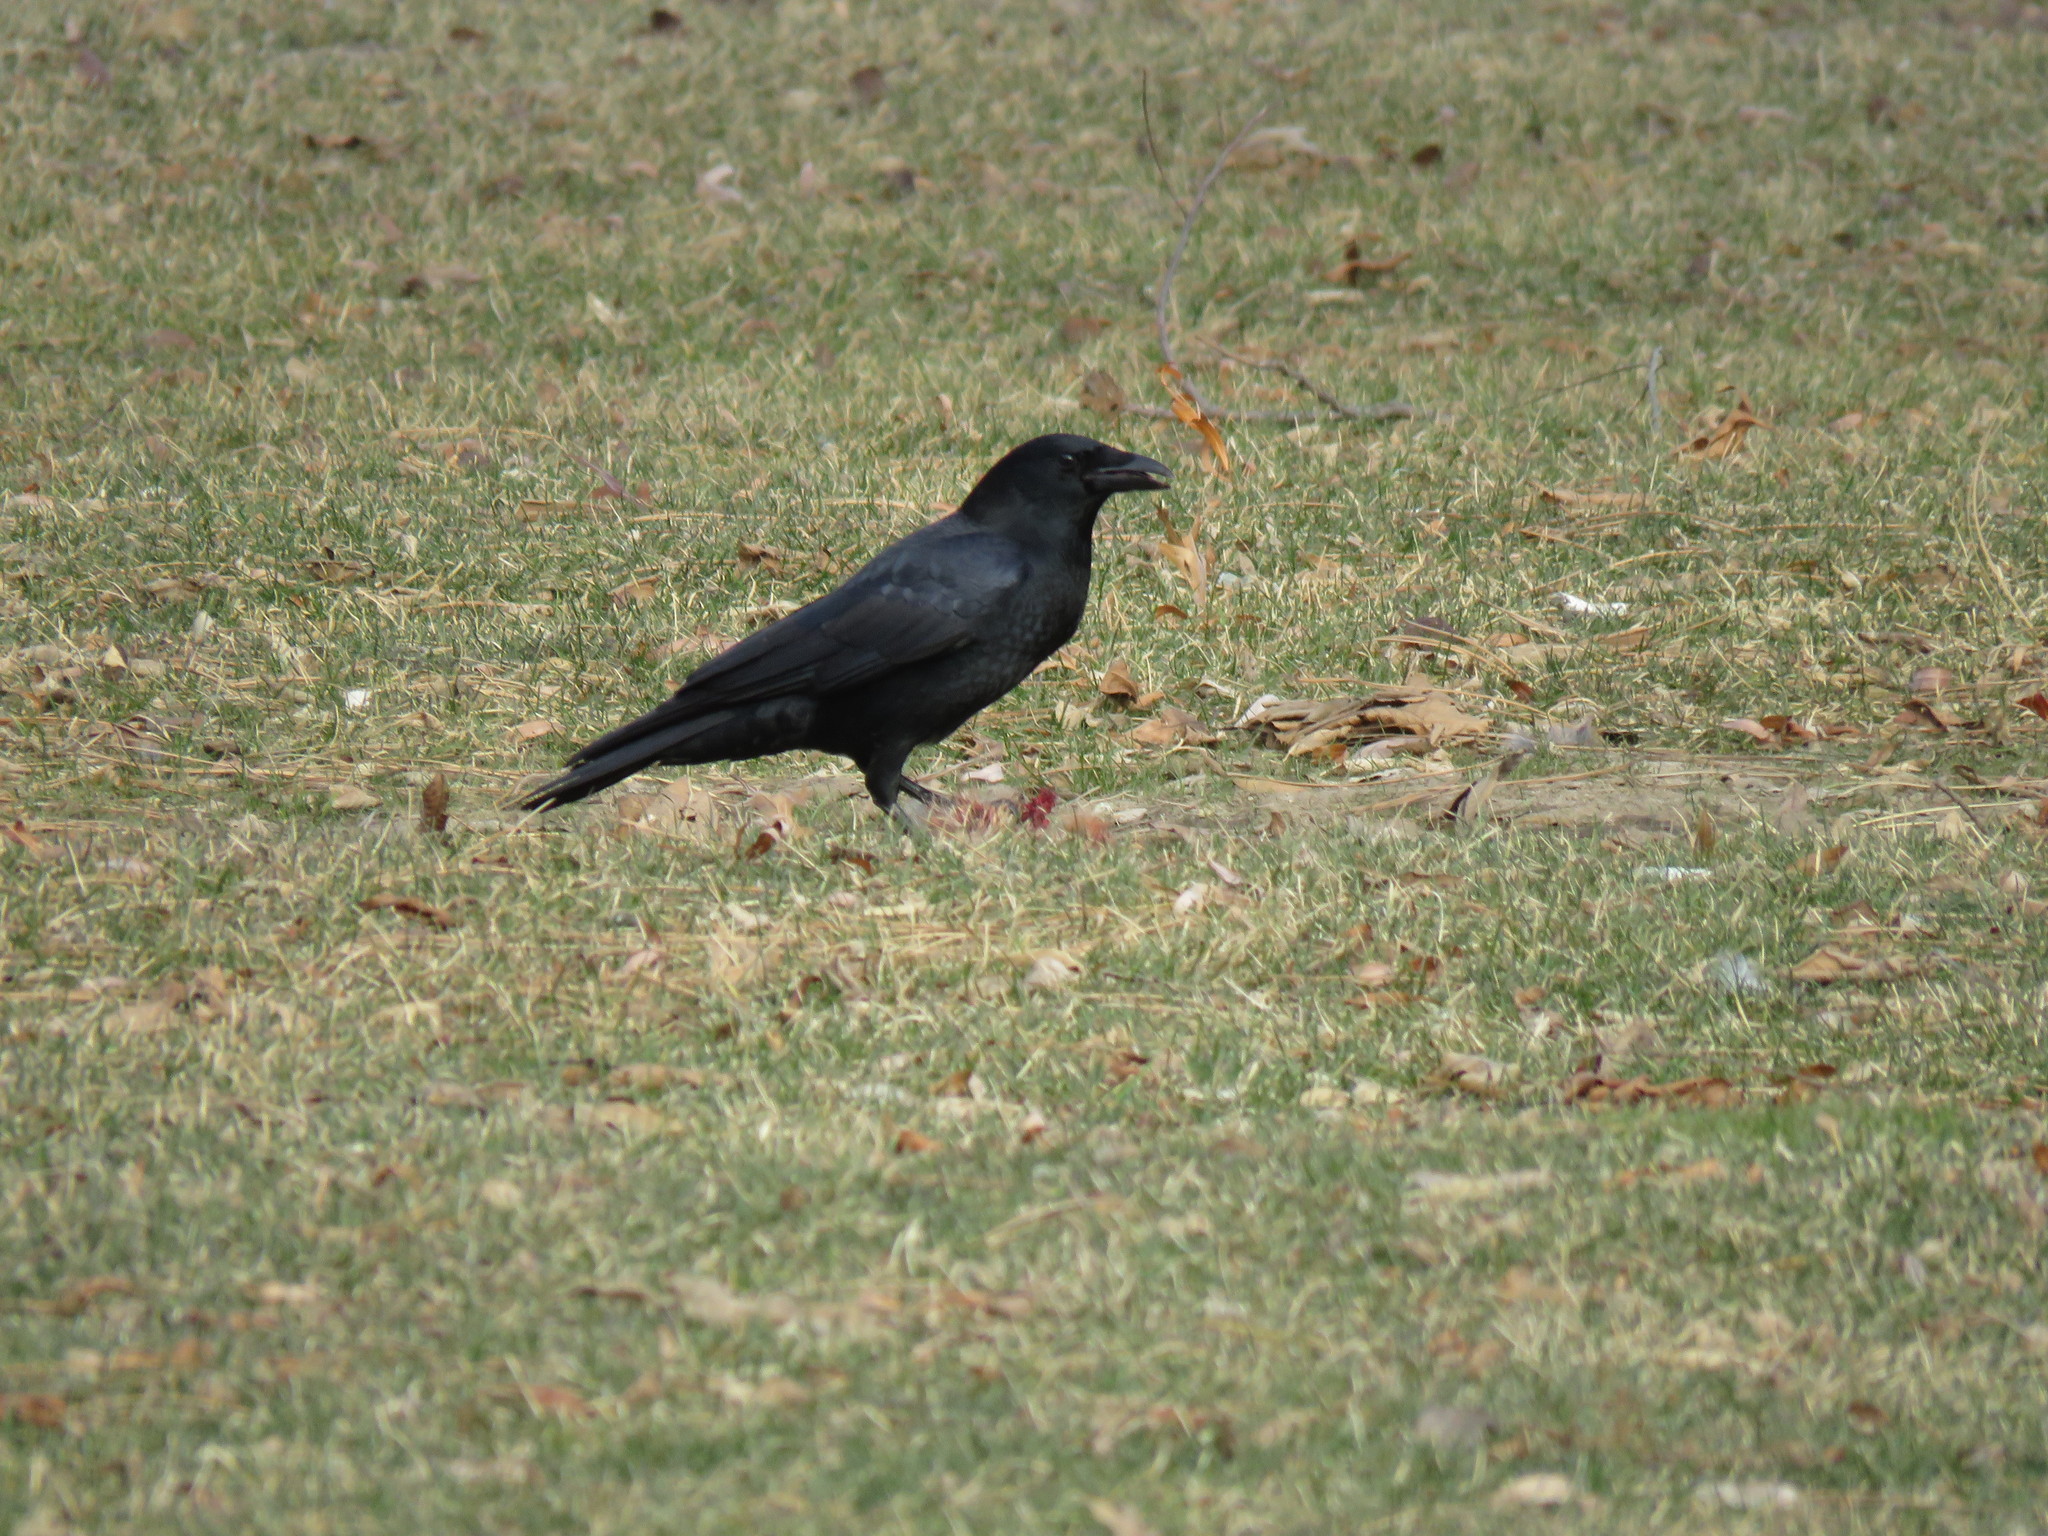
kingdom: Animalia
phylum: Chordata
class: Aves
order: Passeriformes
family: Corvidae
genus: Corvus
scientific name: Corvus brachyrhynchos
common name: American crow
